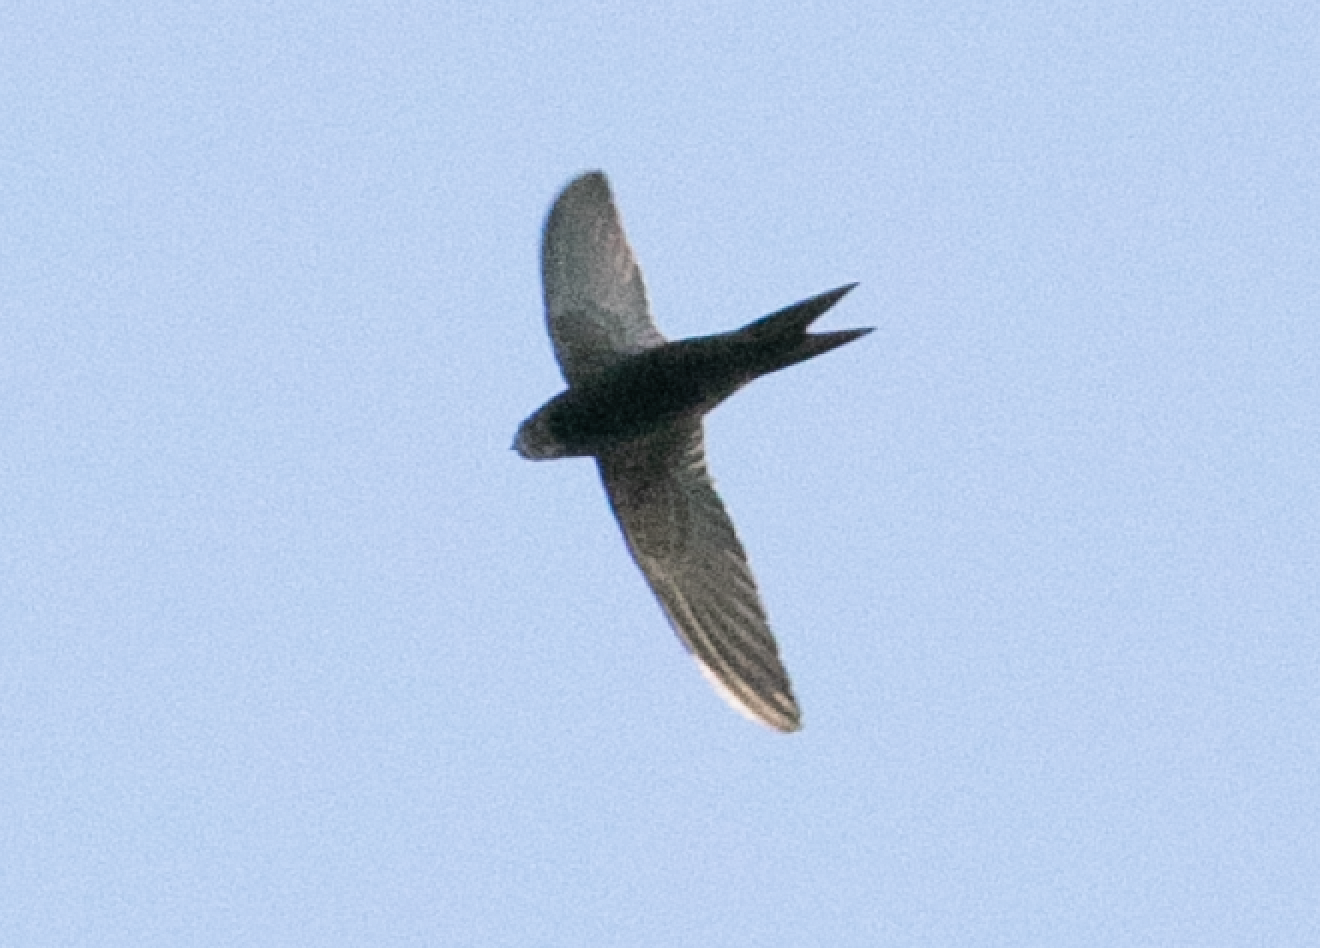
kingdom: Animalia
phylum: Chordata
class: Aves
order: Apodiformes
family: Apodidae
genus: Apus
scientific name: Apus apus
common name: Common swift
